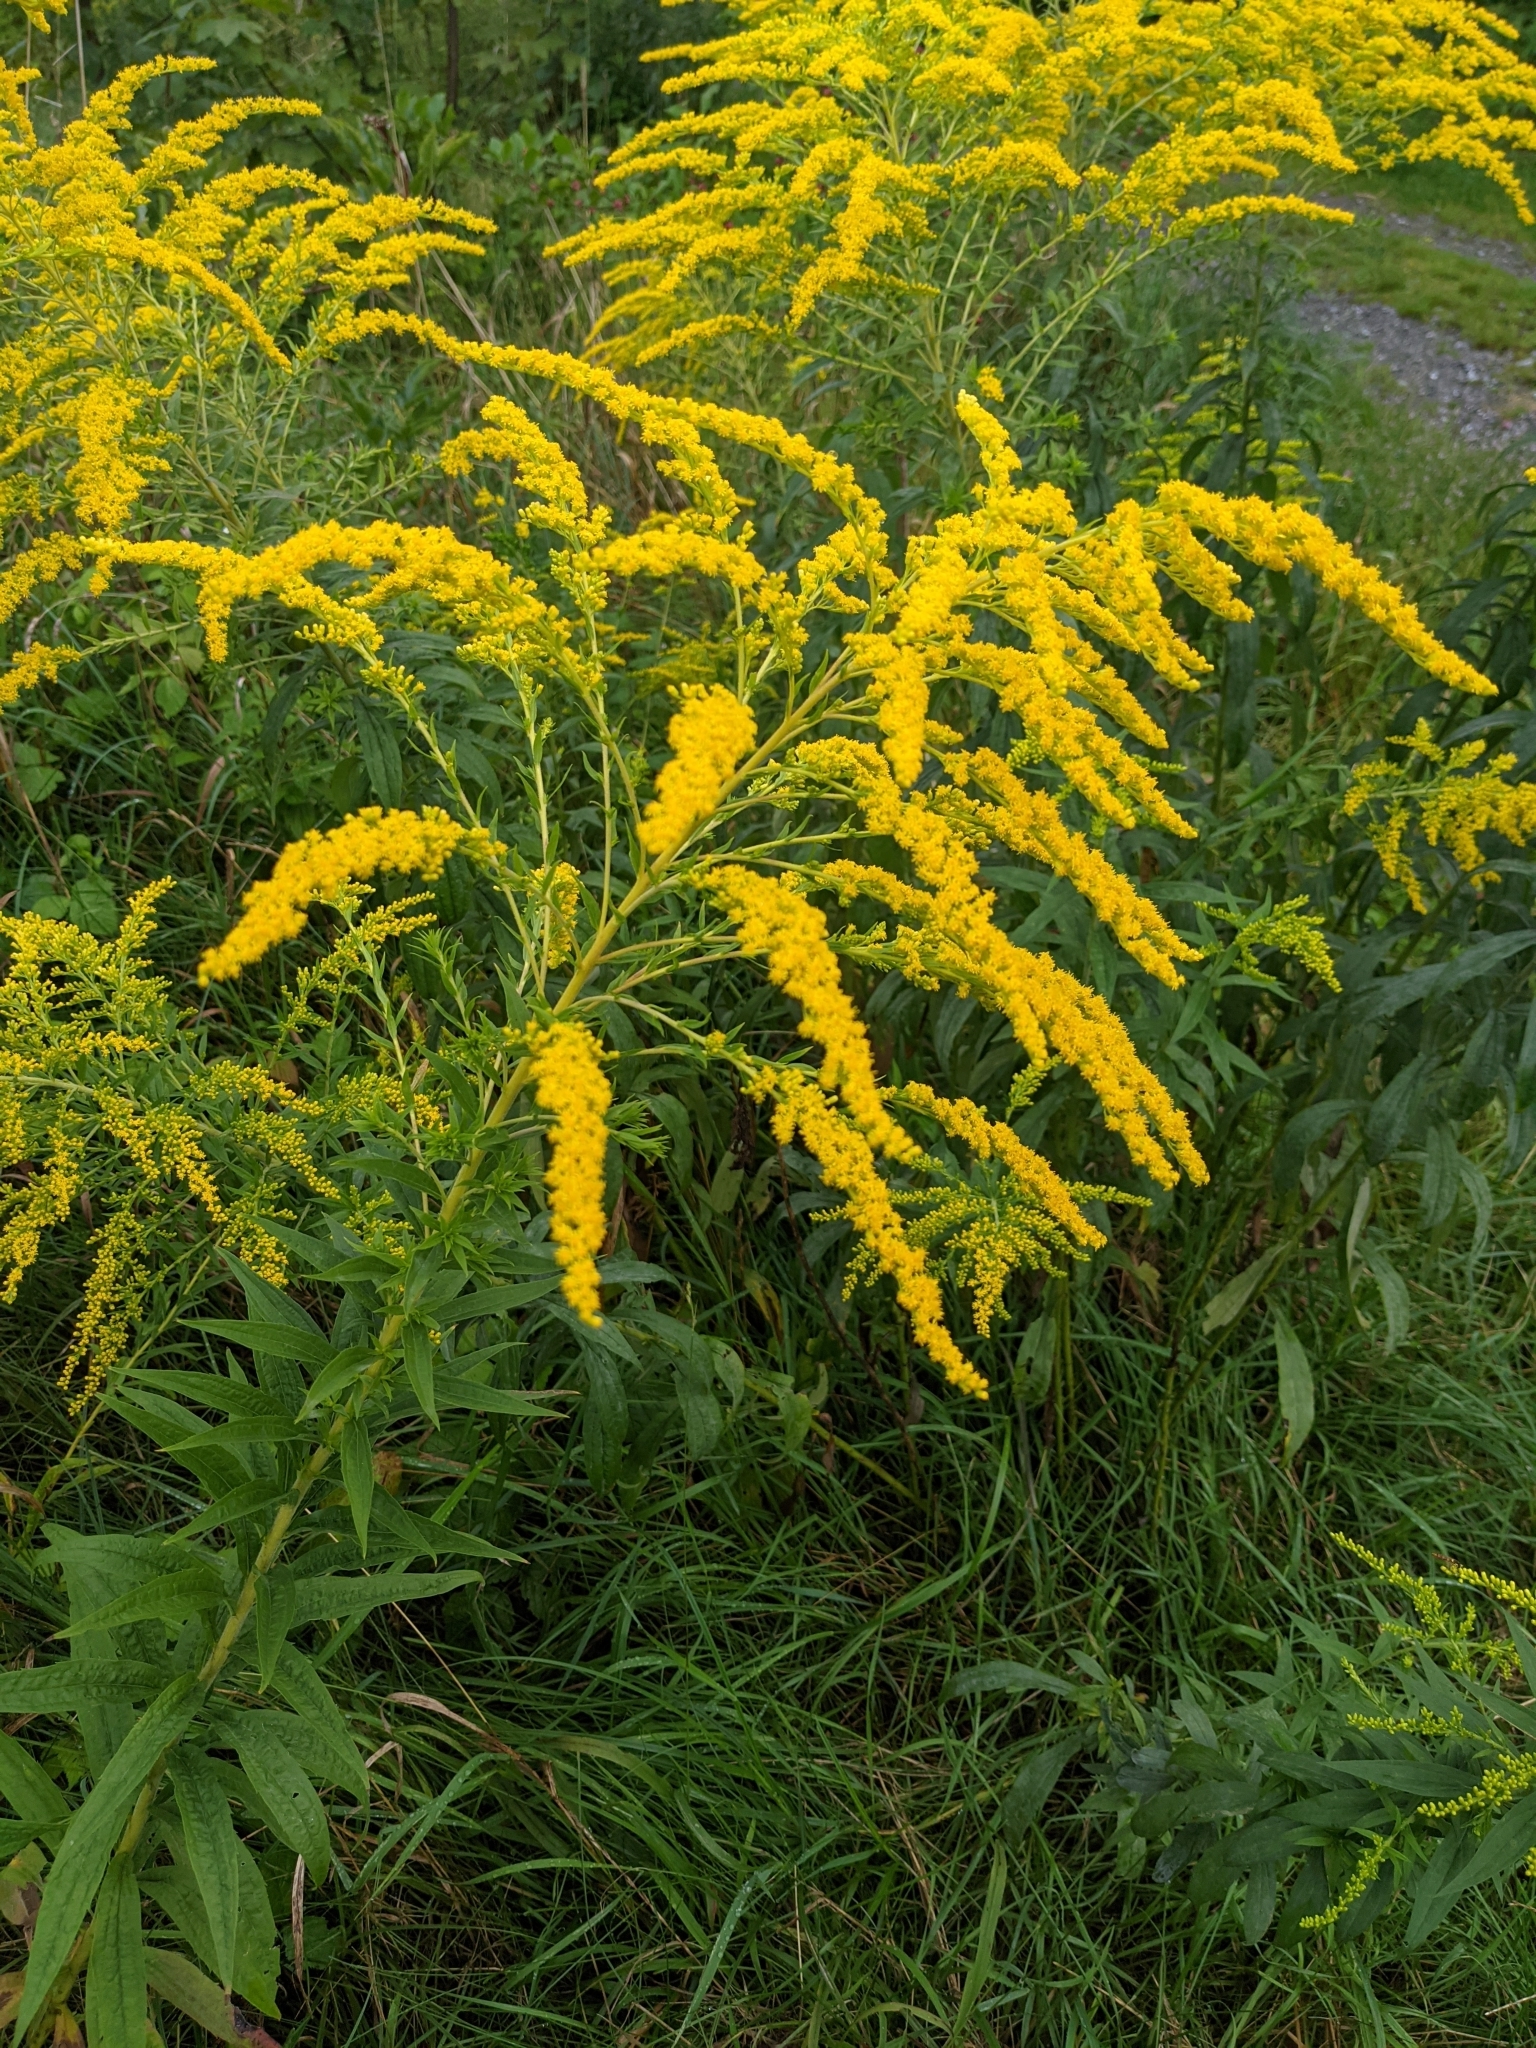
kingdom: Plantae
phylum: Tracheophyta
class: Magnoliopsida
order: Asterales
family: Asteraceae
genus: Solidago
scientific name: Solidago canadensis
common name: Canada goldenrod
